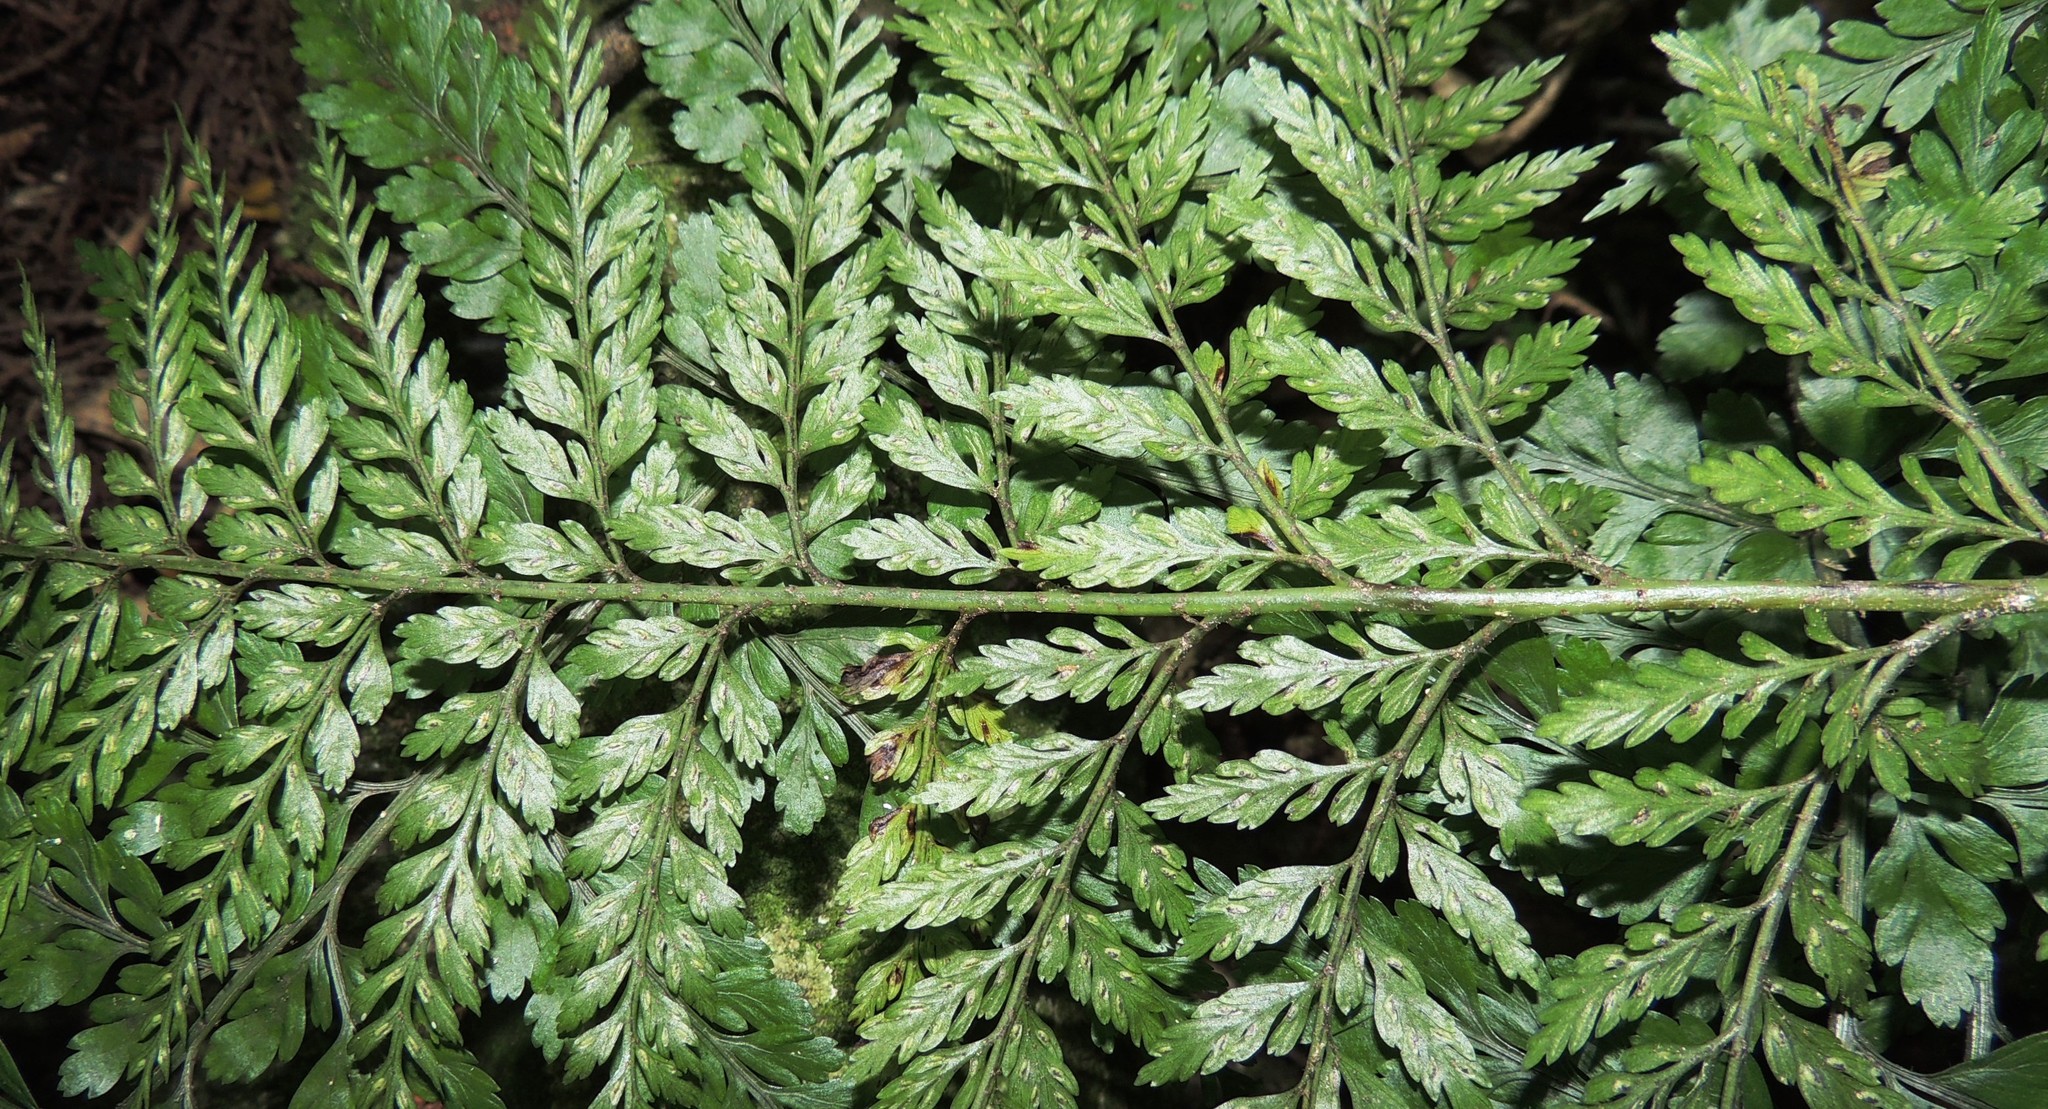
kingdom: Plantae
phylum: Tracheophyta
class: Polypodiopsida
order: Polypodiales
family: Aspleniaceae
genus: Asplenium
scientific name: Asplenium
